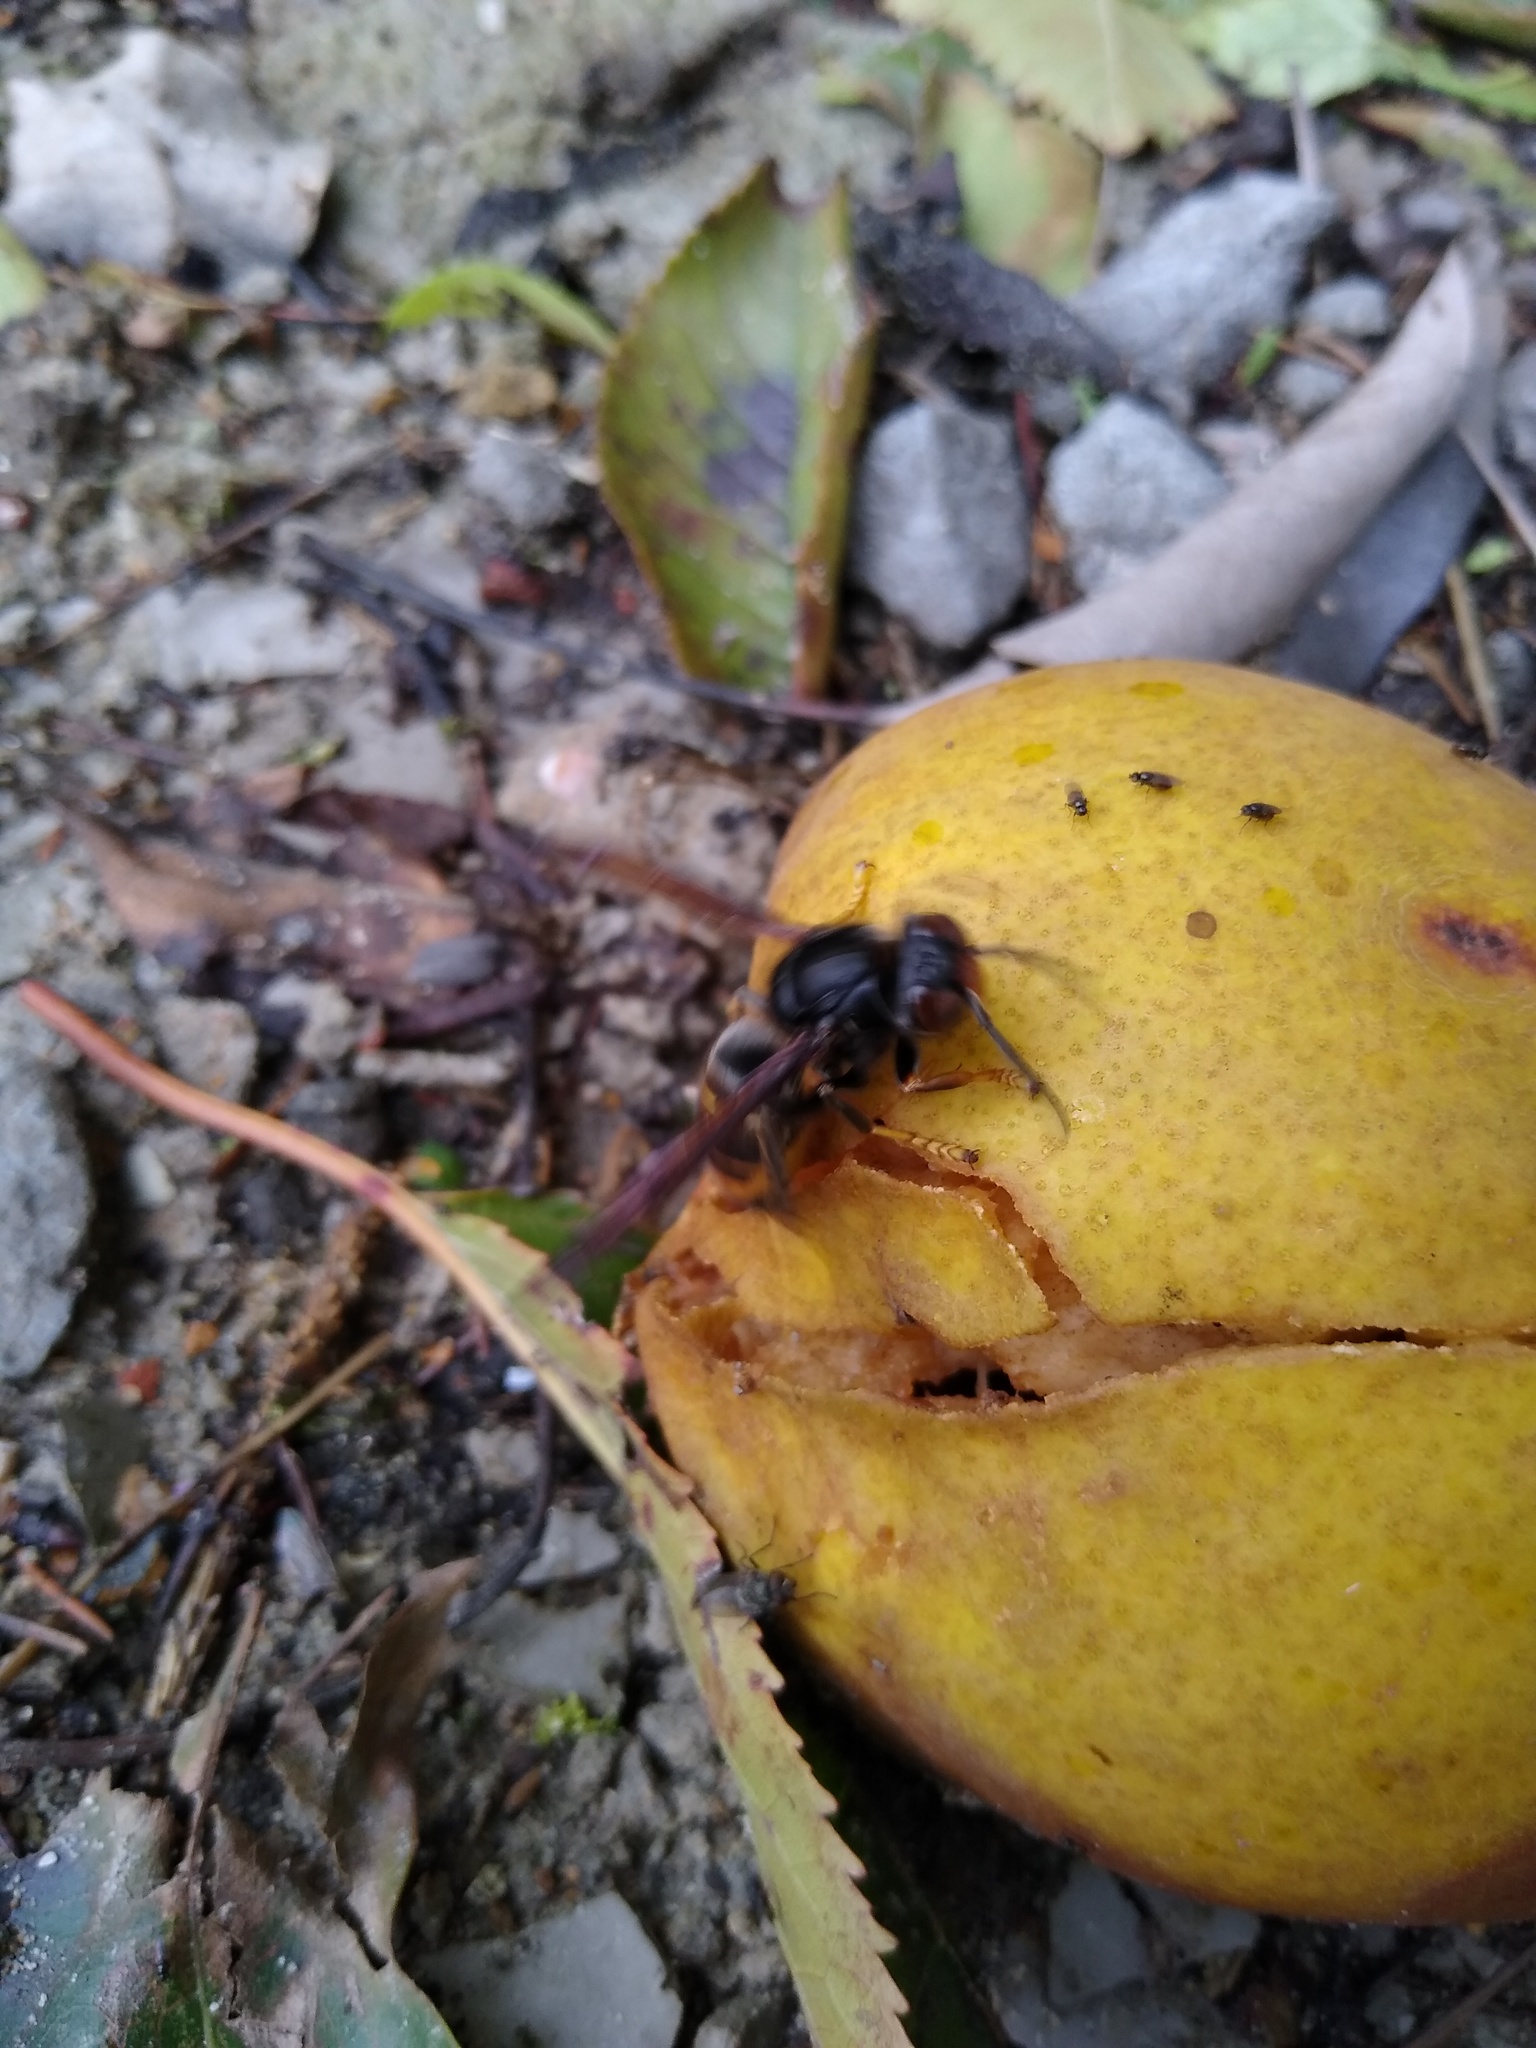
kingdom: Animalia
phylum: Arthropoda
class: Insecta
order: Hymenoptera
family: Vespidae
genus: Vespa
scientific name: Vespa velutina
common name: Asian hornet
